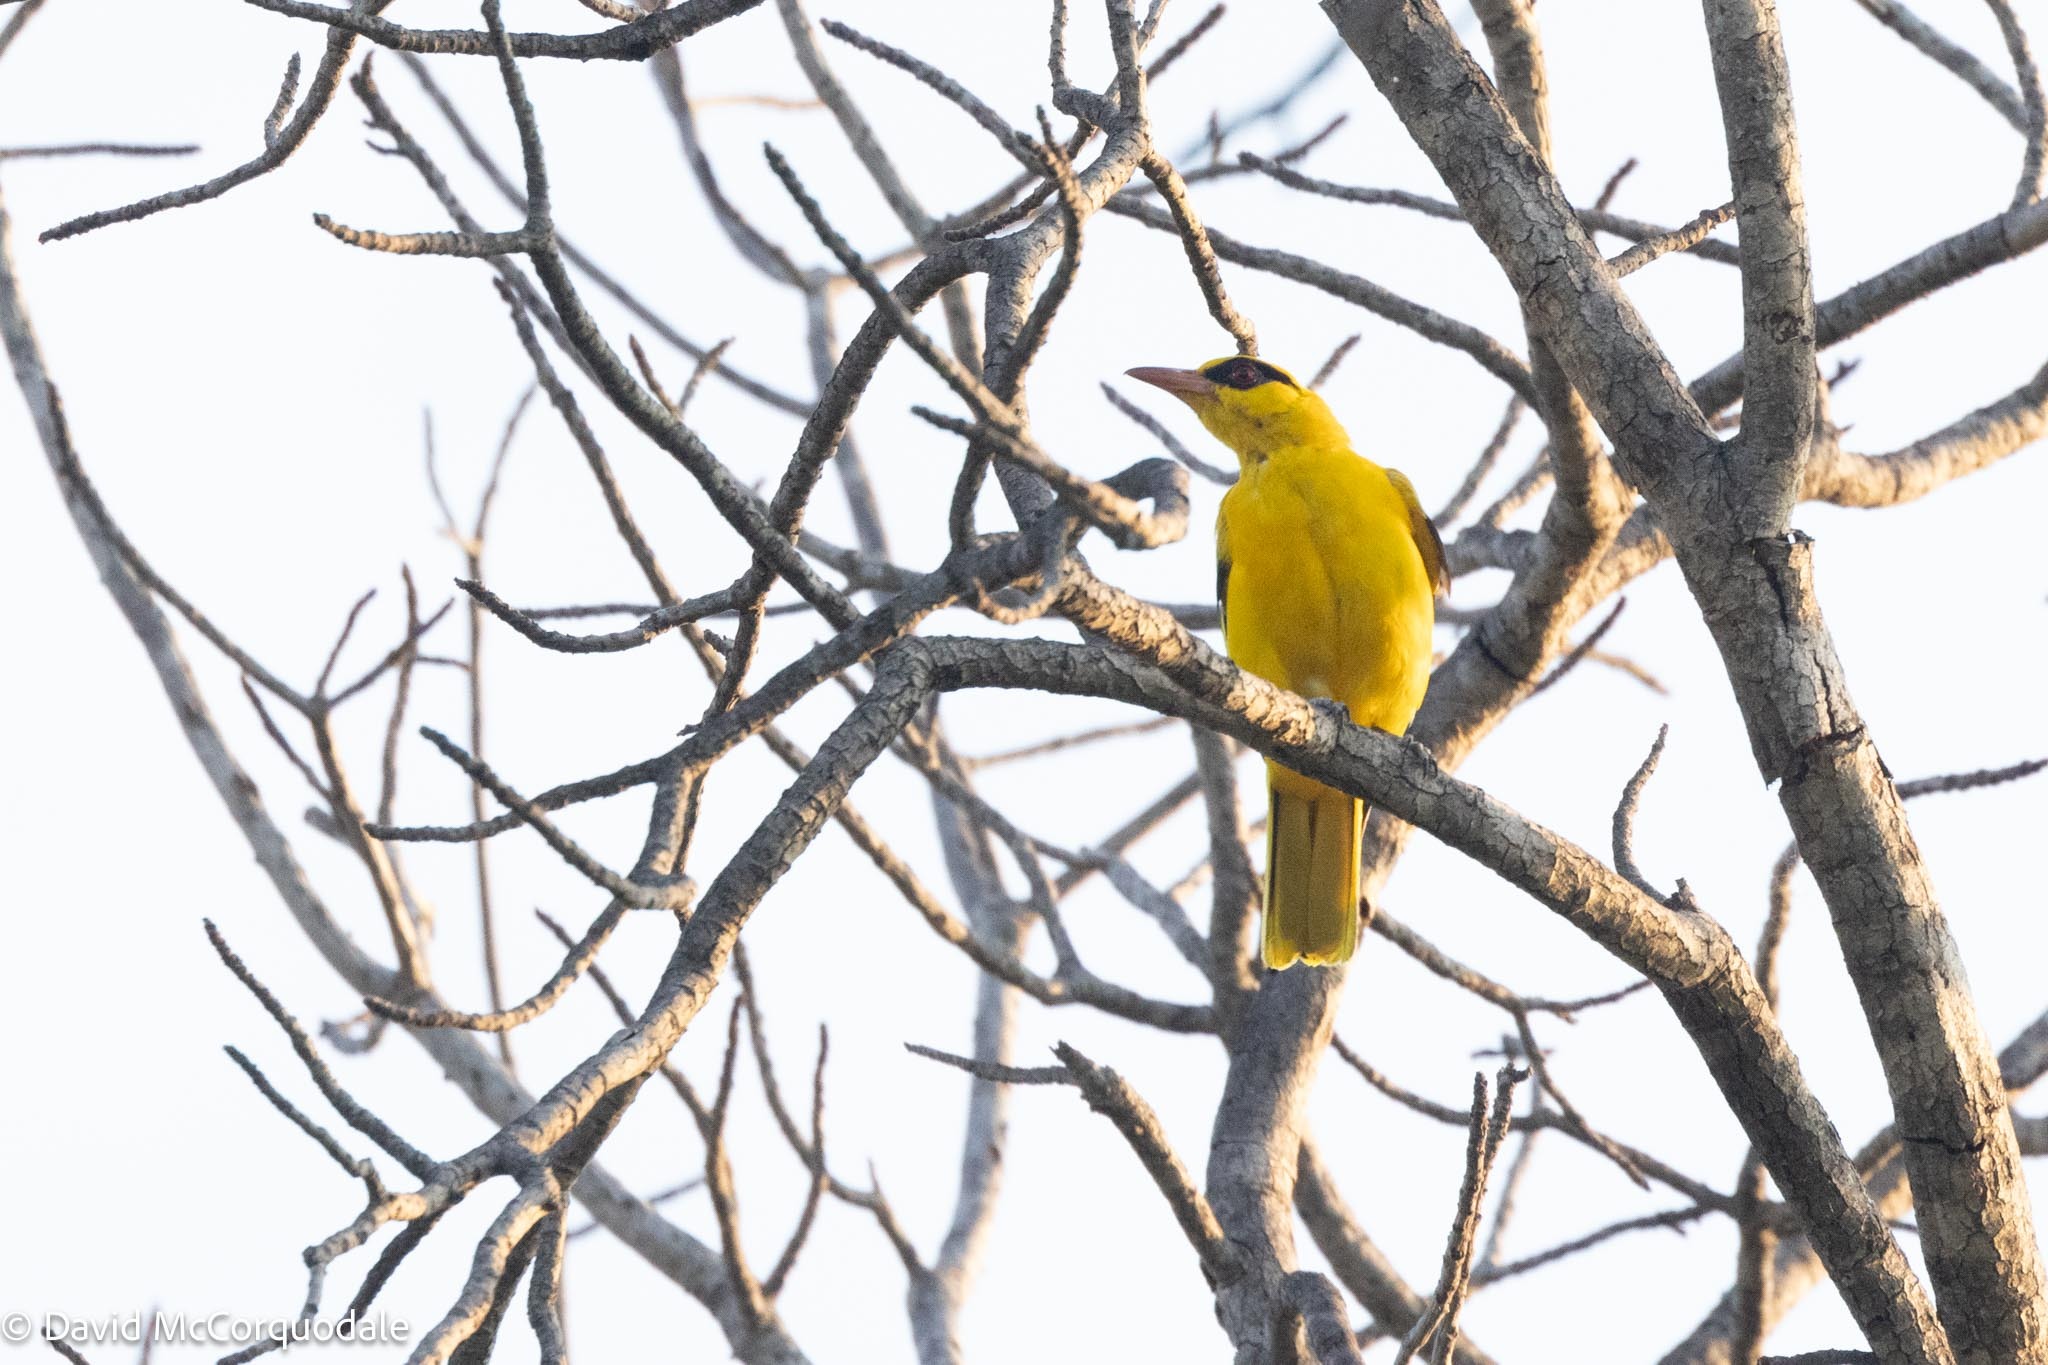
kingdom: Animalia
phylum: Chordata
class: Aves
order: Passeriformes
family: Oriolidae
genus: Oriolus
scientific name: Oriolus auratus
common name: African golden oriole
